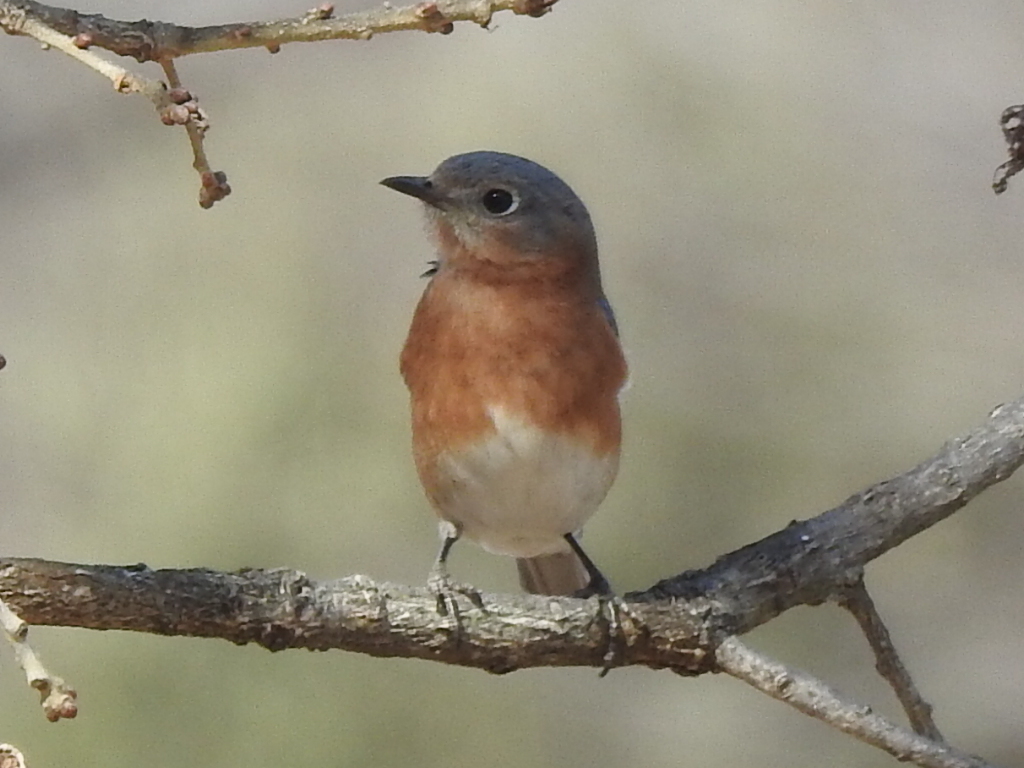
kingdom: Animalia
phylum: Chordata
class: Aves
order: Passeriformes
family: Turdidae
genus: Sialia
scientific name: Sialia sialis
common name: Eastern bluebird
